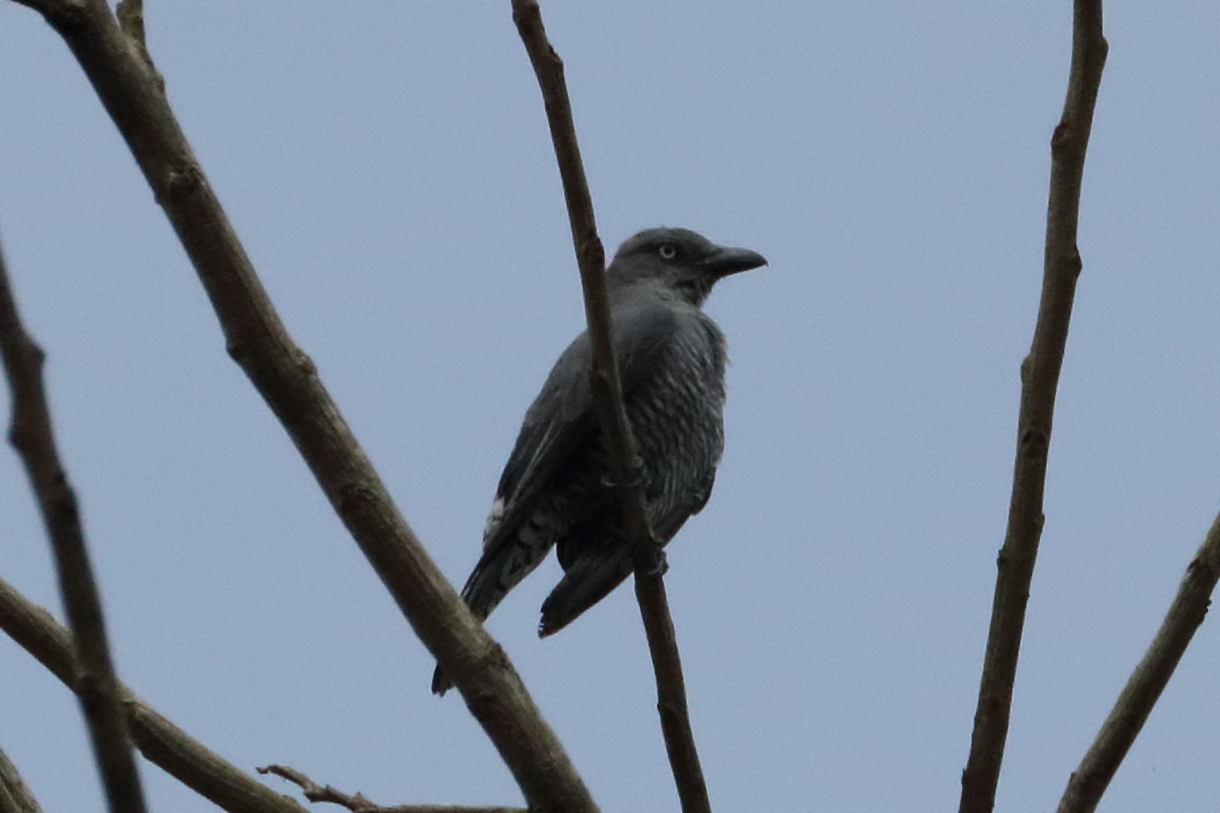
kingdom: Animalia
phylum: Chordata
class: Aves
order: Passeriformes
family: Campephagidae
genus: Coracina
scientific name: Coracina striata
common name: Bar-bellied cuckooshrike
